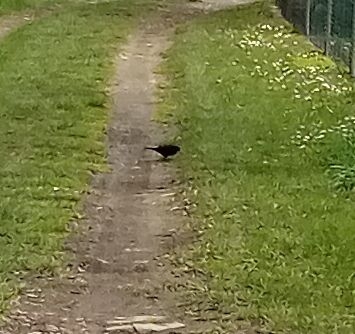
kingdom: Animalia
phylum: Chordata
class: Aves
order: Passeriformes
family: Turdidae
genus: Turdus
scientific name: Turdus merula
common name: Common blackbird
